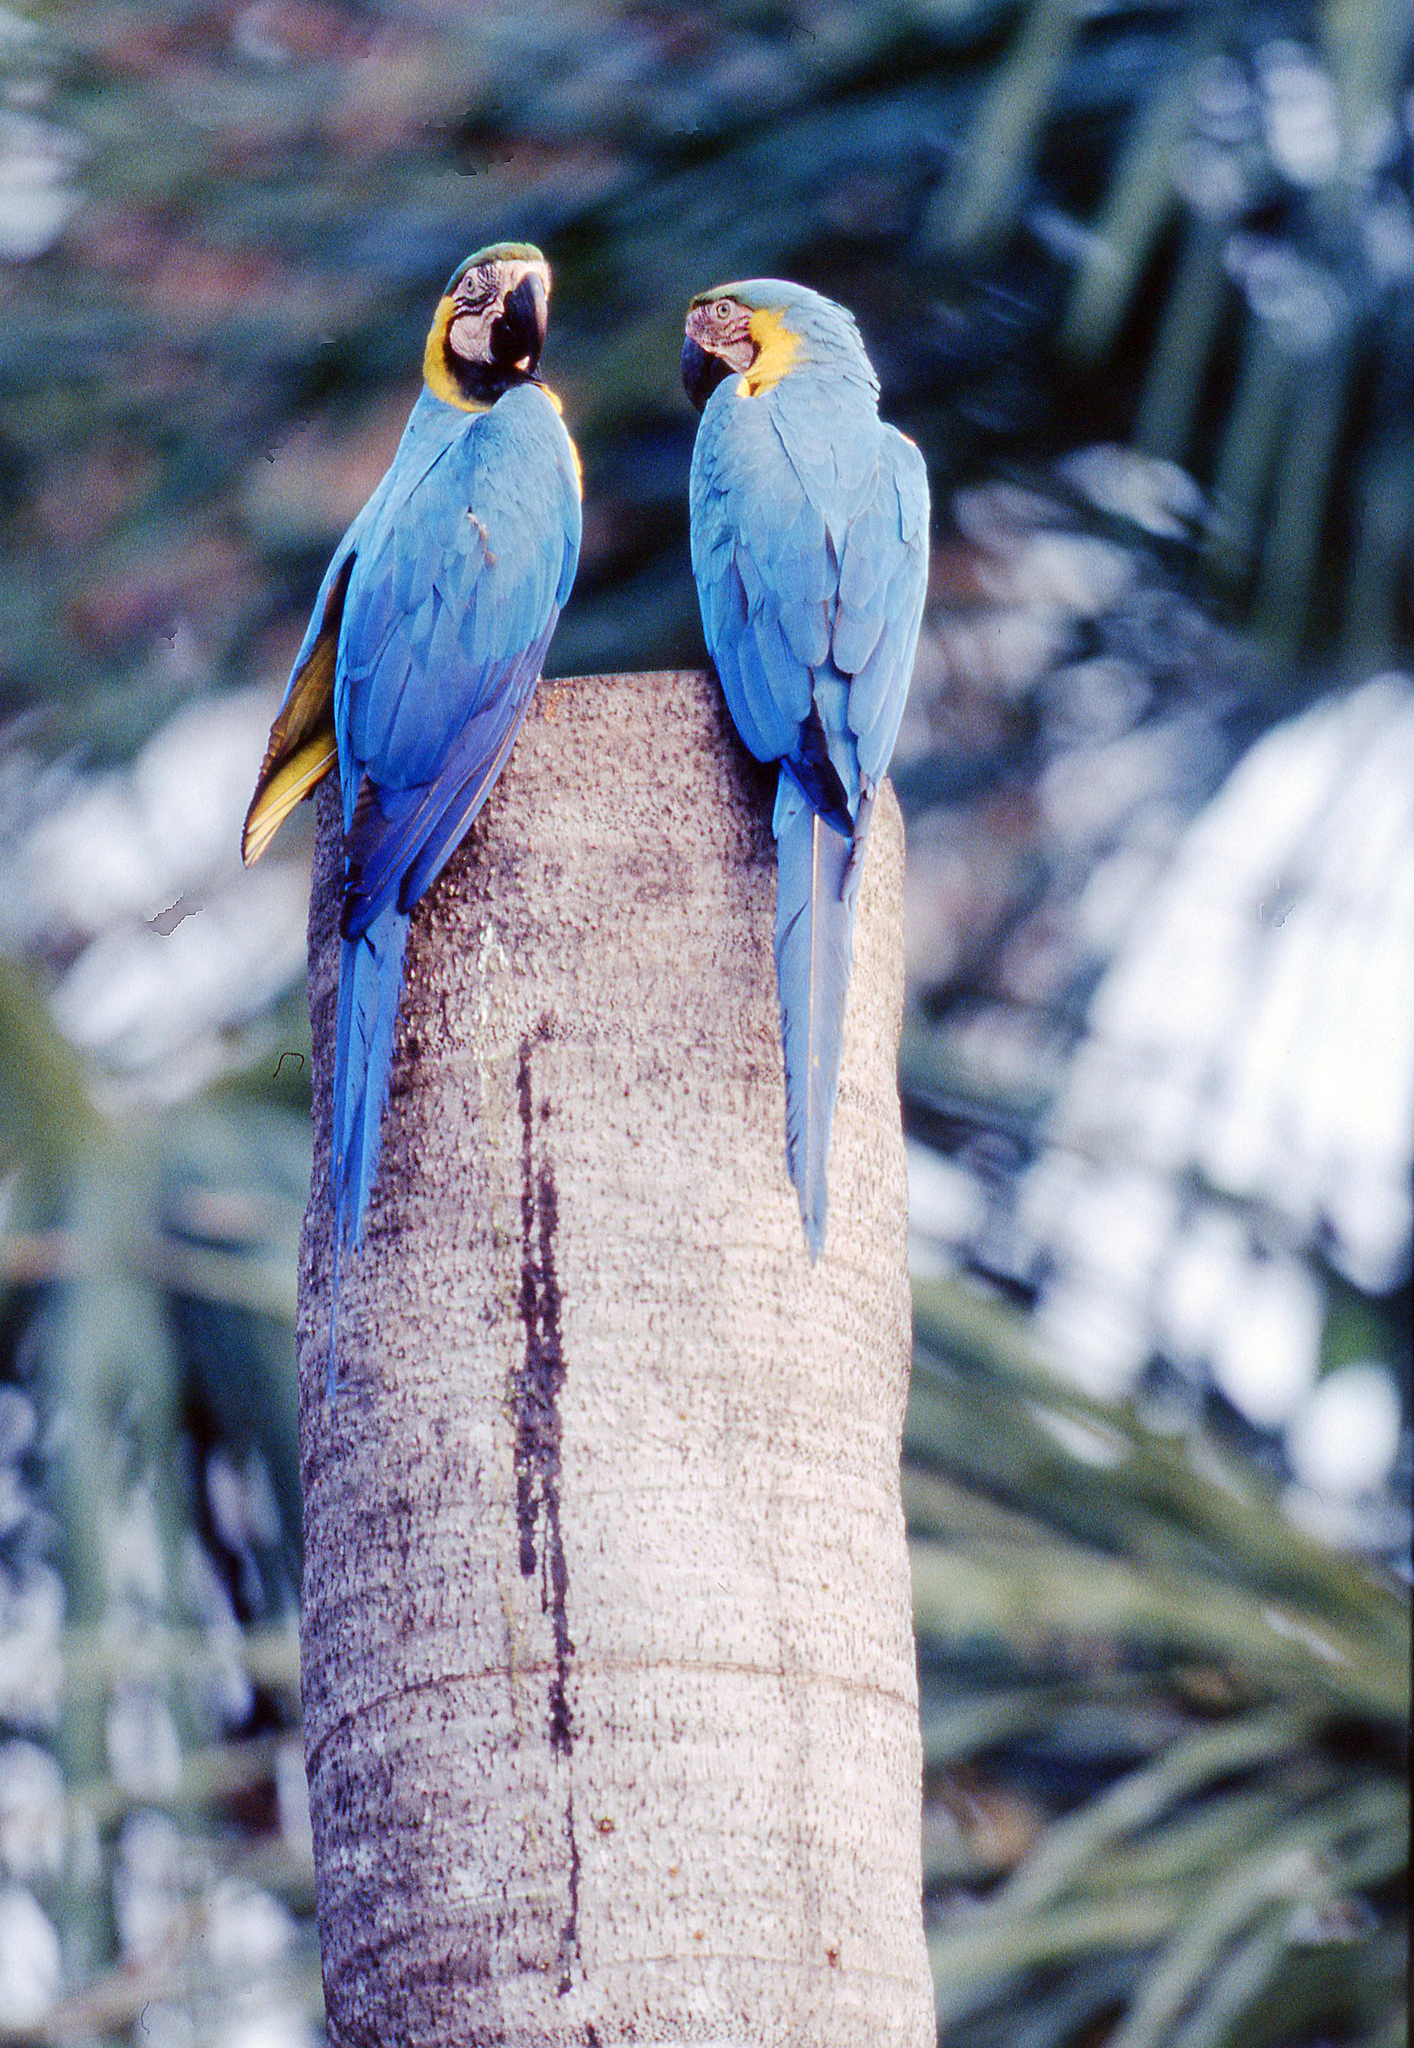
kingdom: Animalia
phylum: Chordata
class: Aves
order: Psittaciformes
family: Psittacidae
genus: Ara
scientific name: Ara ararauna
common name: Blue-and-yellow macaw
